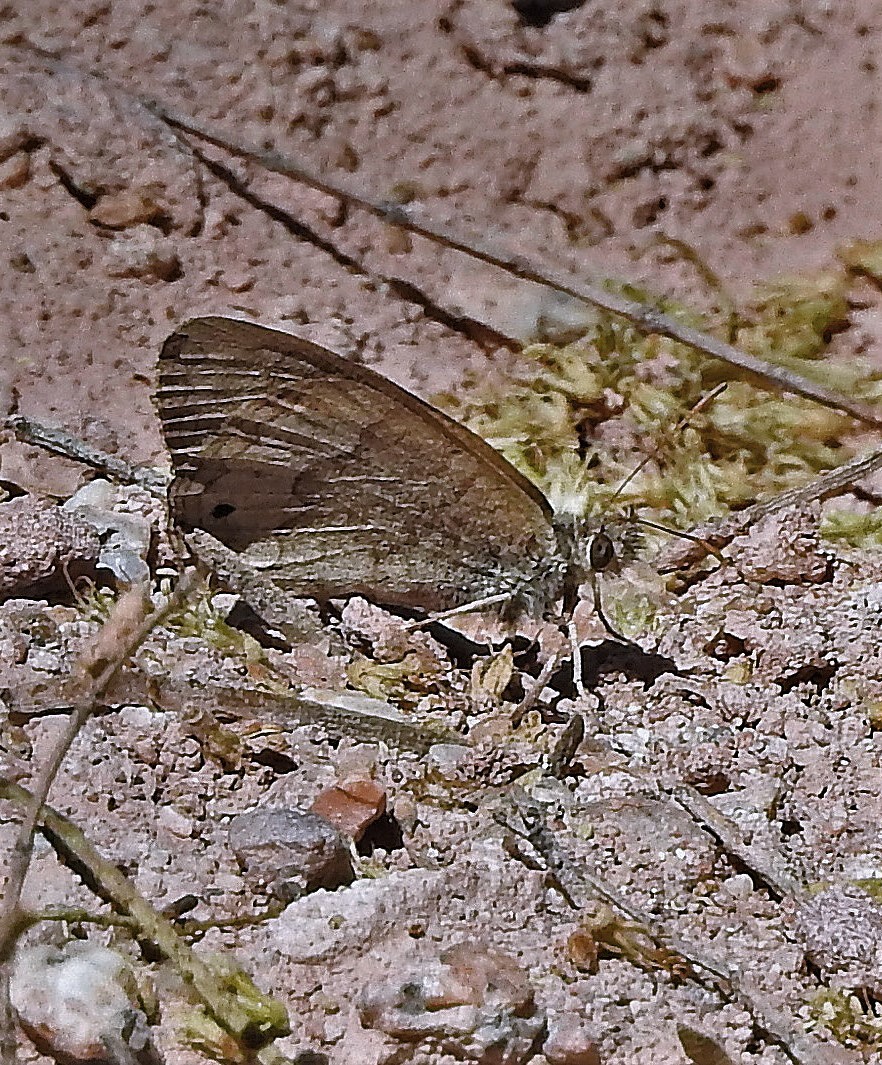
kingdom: Animalia
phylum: Arthropoda
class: Insecta
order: Lepidoptera
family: Nymphalidae
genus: Pharneuptychia
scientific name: Pharneuptychia phares
